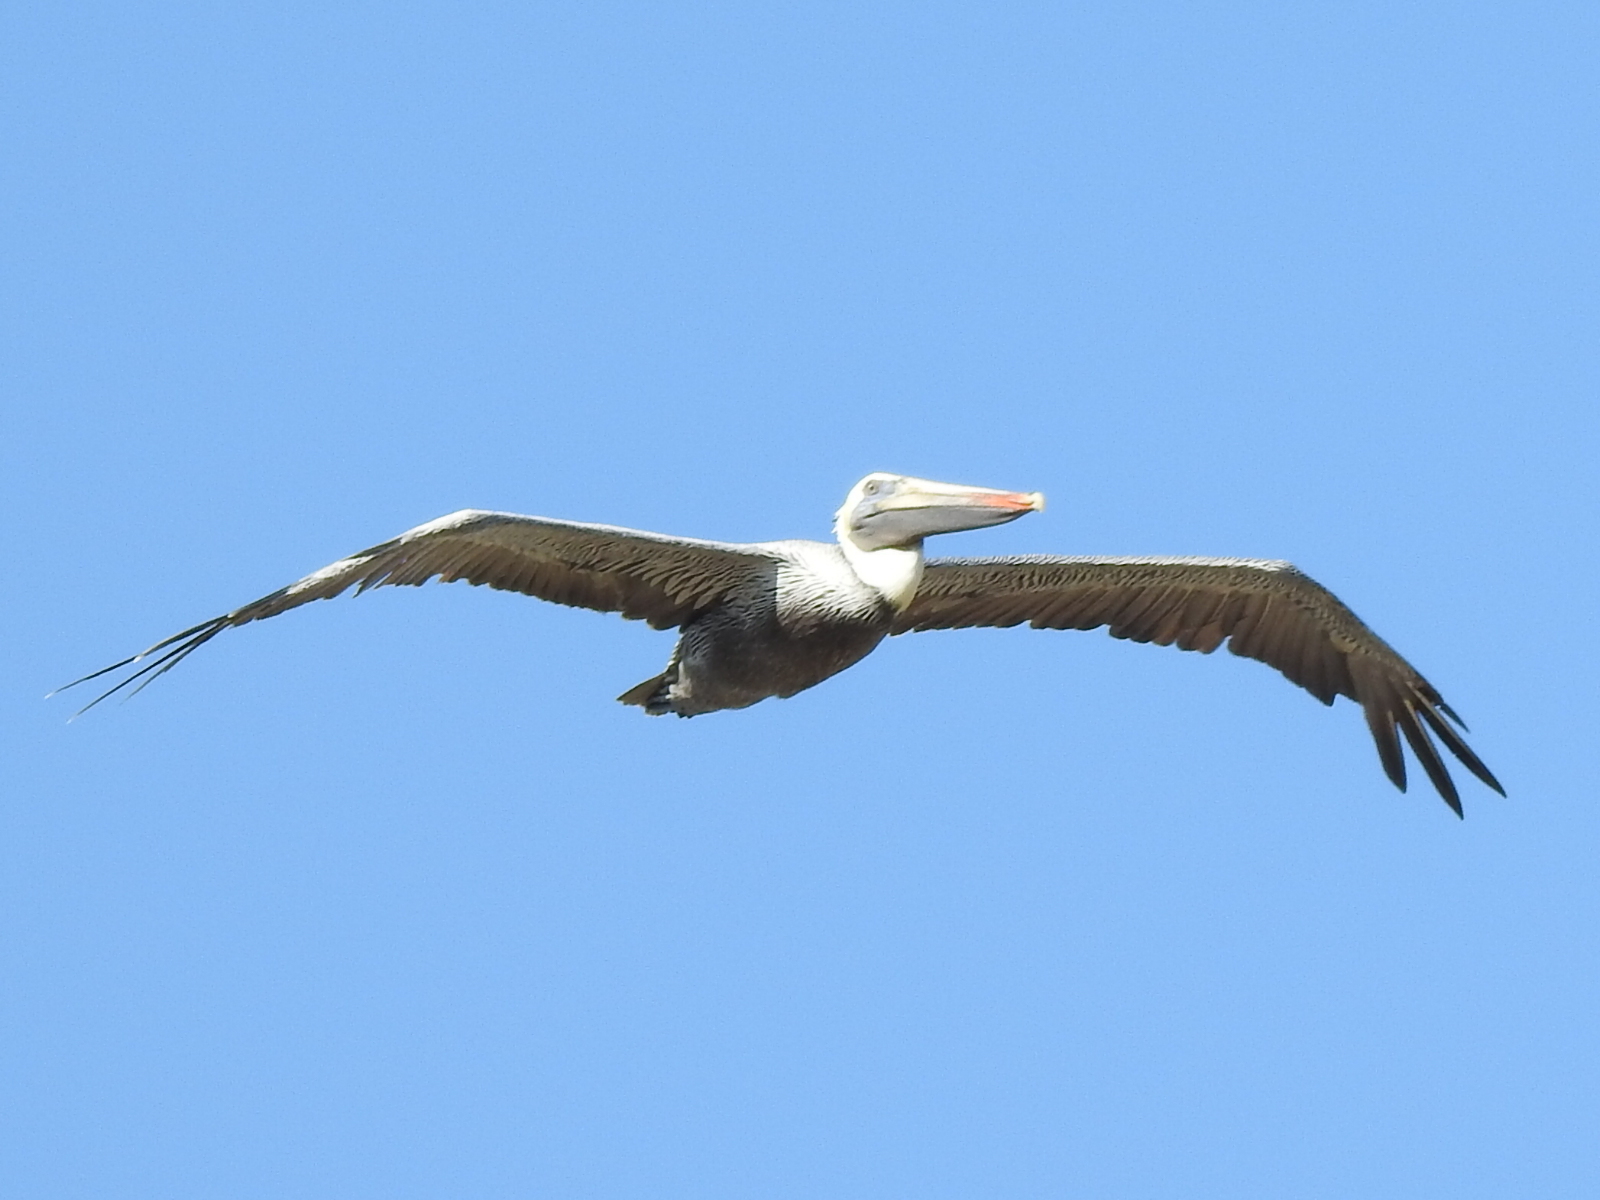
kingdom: Animalia
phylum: Chordata
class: Aves
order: Pelecaniformes
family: Pelecanidae
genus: Pelecanus
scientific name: Pelecanus occidentalis
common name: Brown pelican
